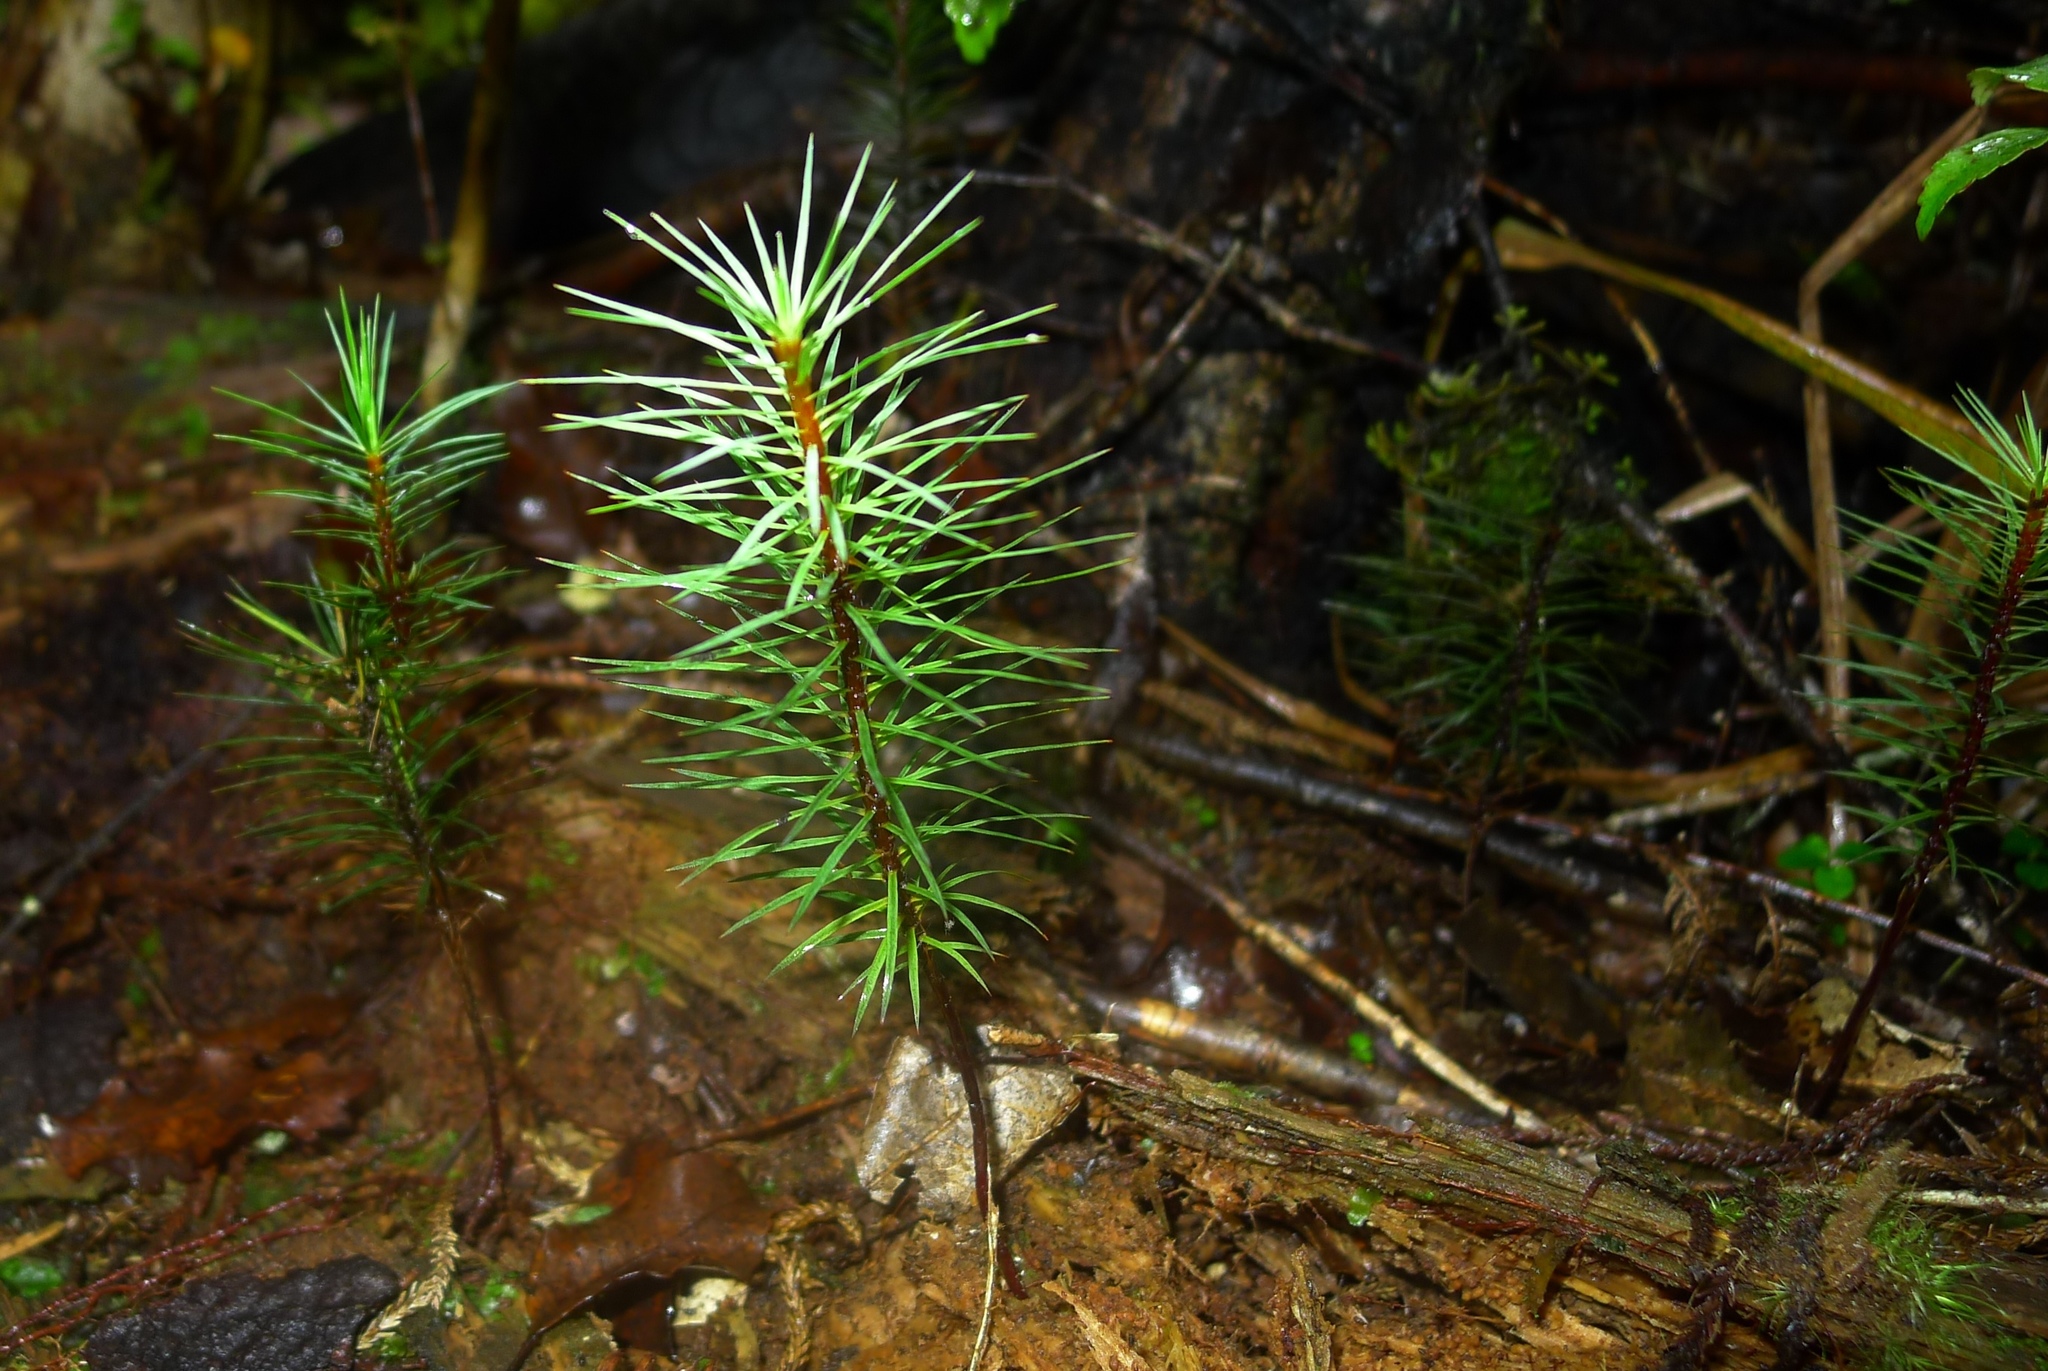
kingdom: Plantae
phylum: Bryophyta
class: Polytrichopsida
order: Polytrichales
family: Polytrichaceae
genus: Dawsonia
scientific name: Dawsonia superba
